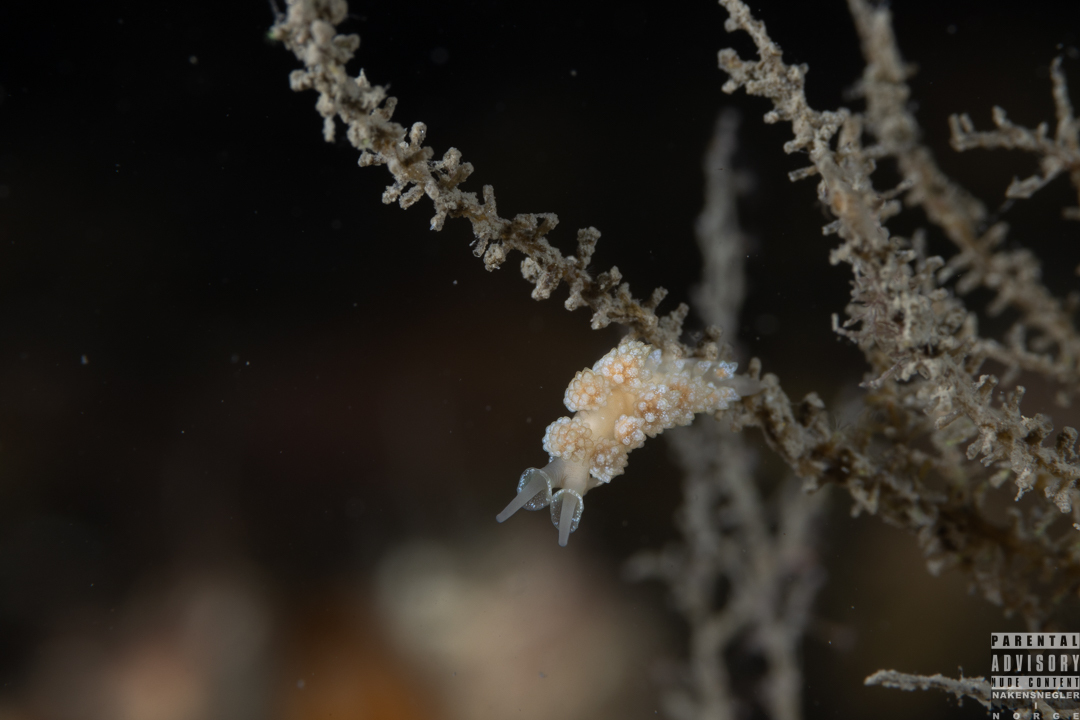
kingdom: Animalia
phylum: Mollusca
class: Gastropoda
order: Nudibranchia
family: Dotidae
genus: Doto
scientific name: Doto fragilis
